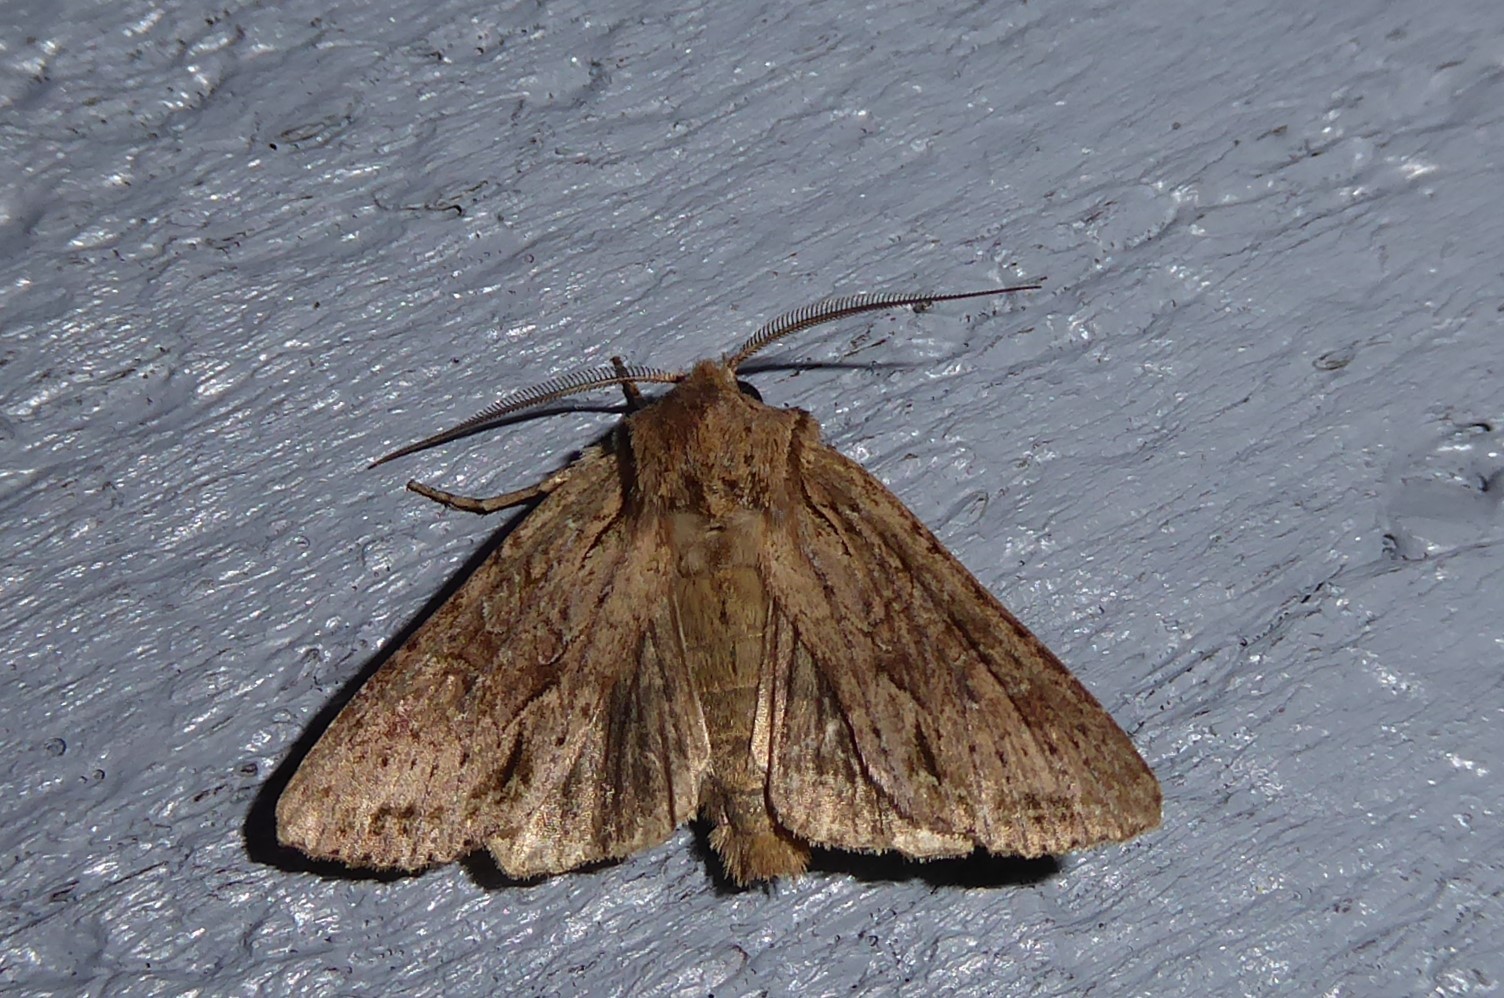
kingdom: Animalia
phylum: Arthropoda
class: Insecta
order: Lepidoptera
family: Noctuidae
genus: Ichneutica
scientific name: Ichneutica
